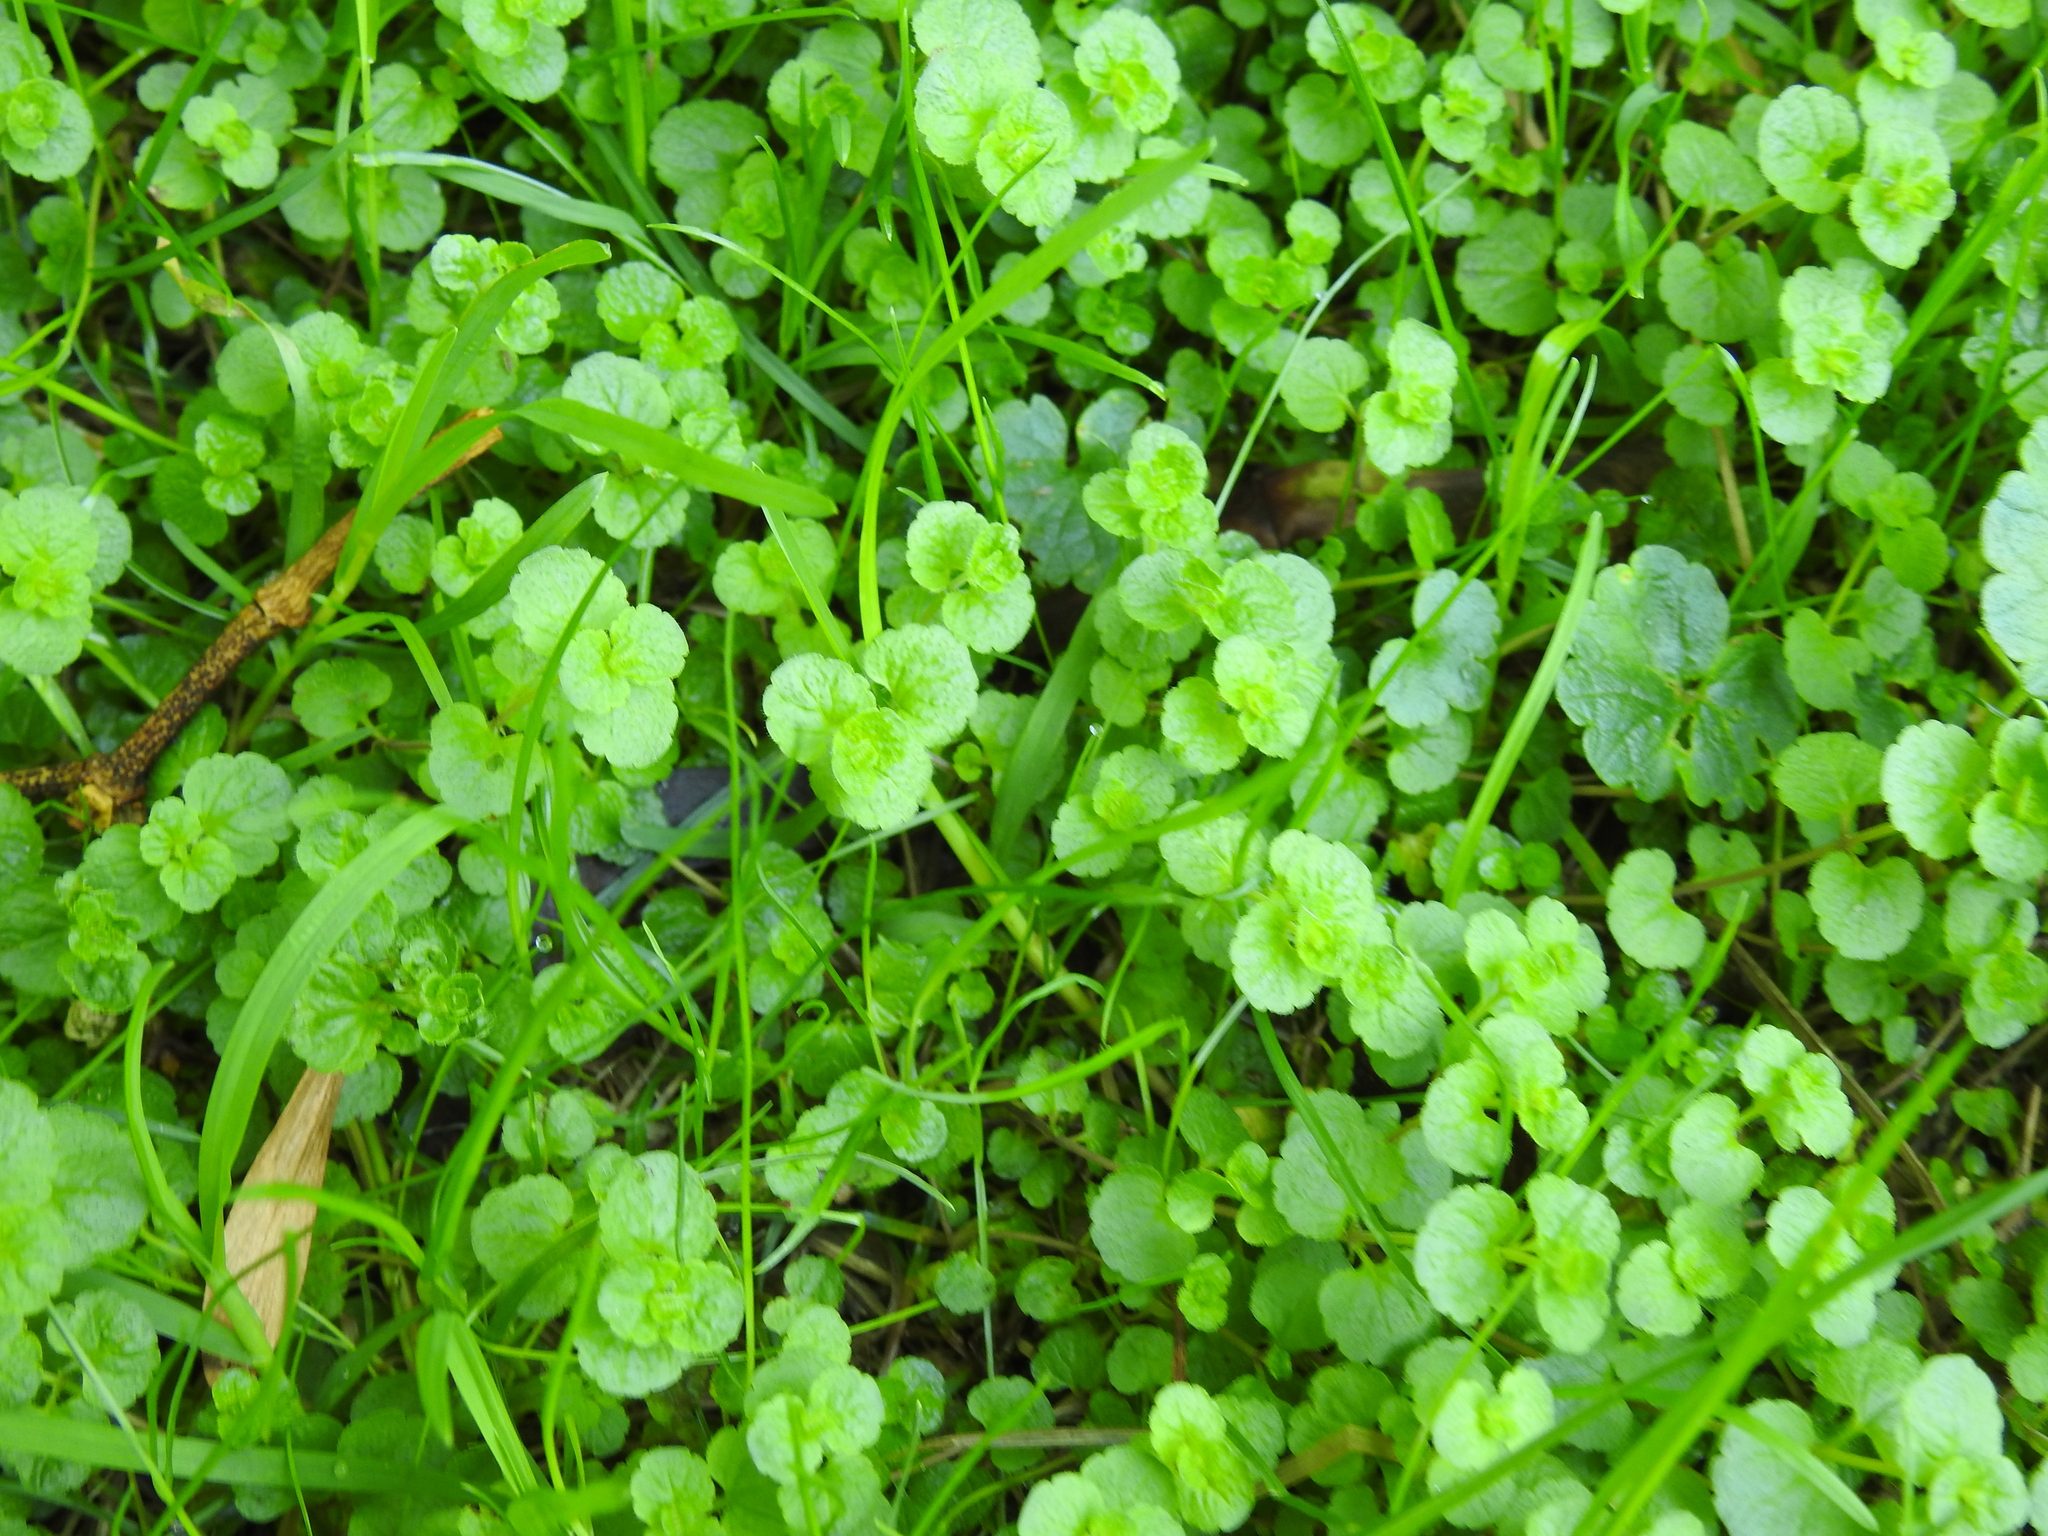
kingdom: Plantae
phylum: Tracheophyta
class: Magnoliopsida
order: Lamiales
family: Plantaginaceae
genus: Veronica
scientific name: Veronica filiformis
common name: Slender speedwell
